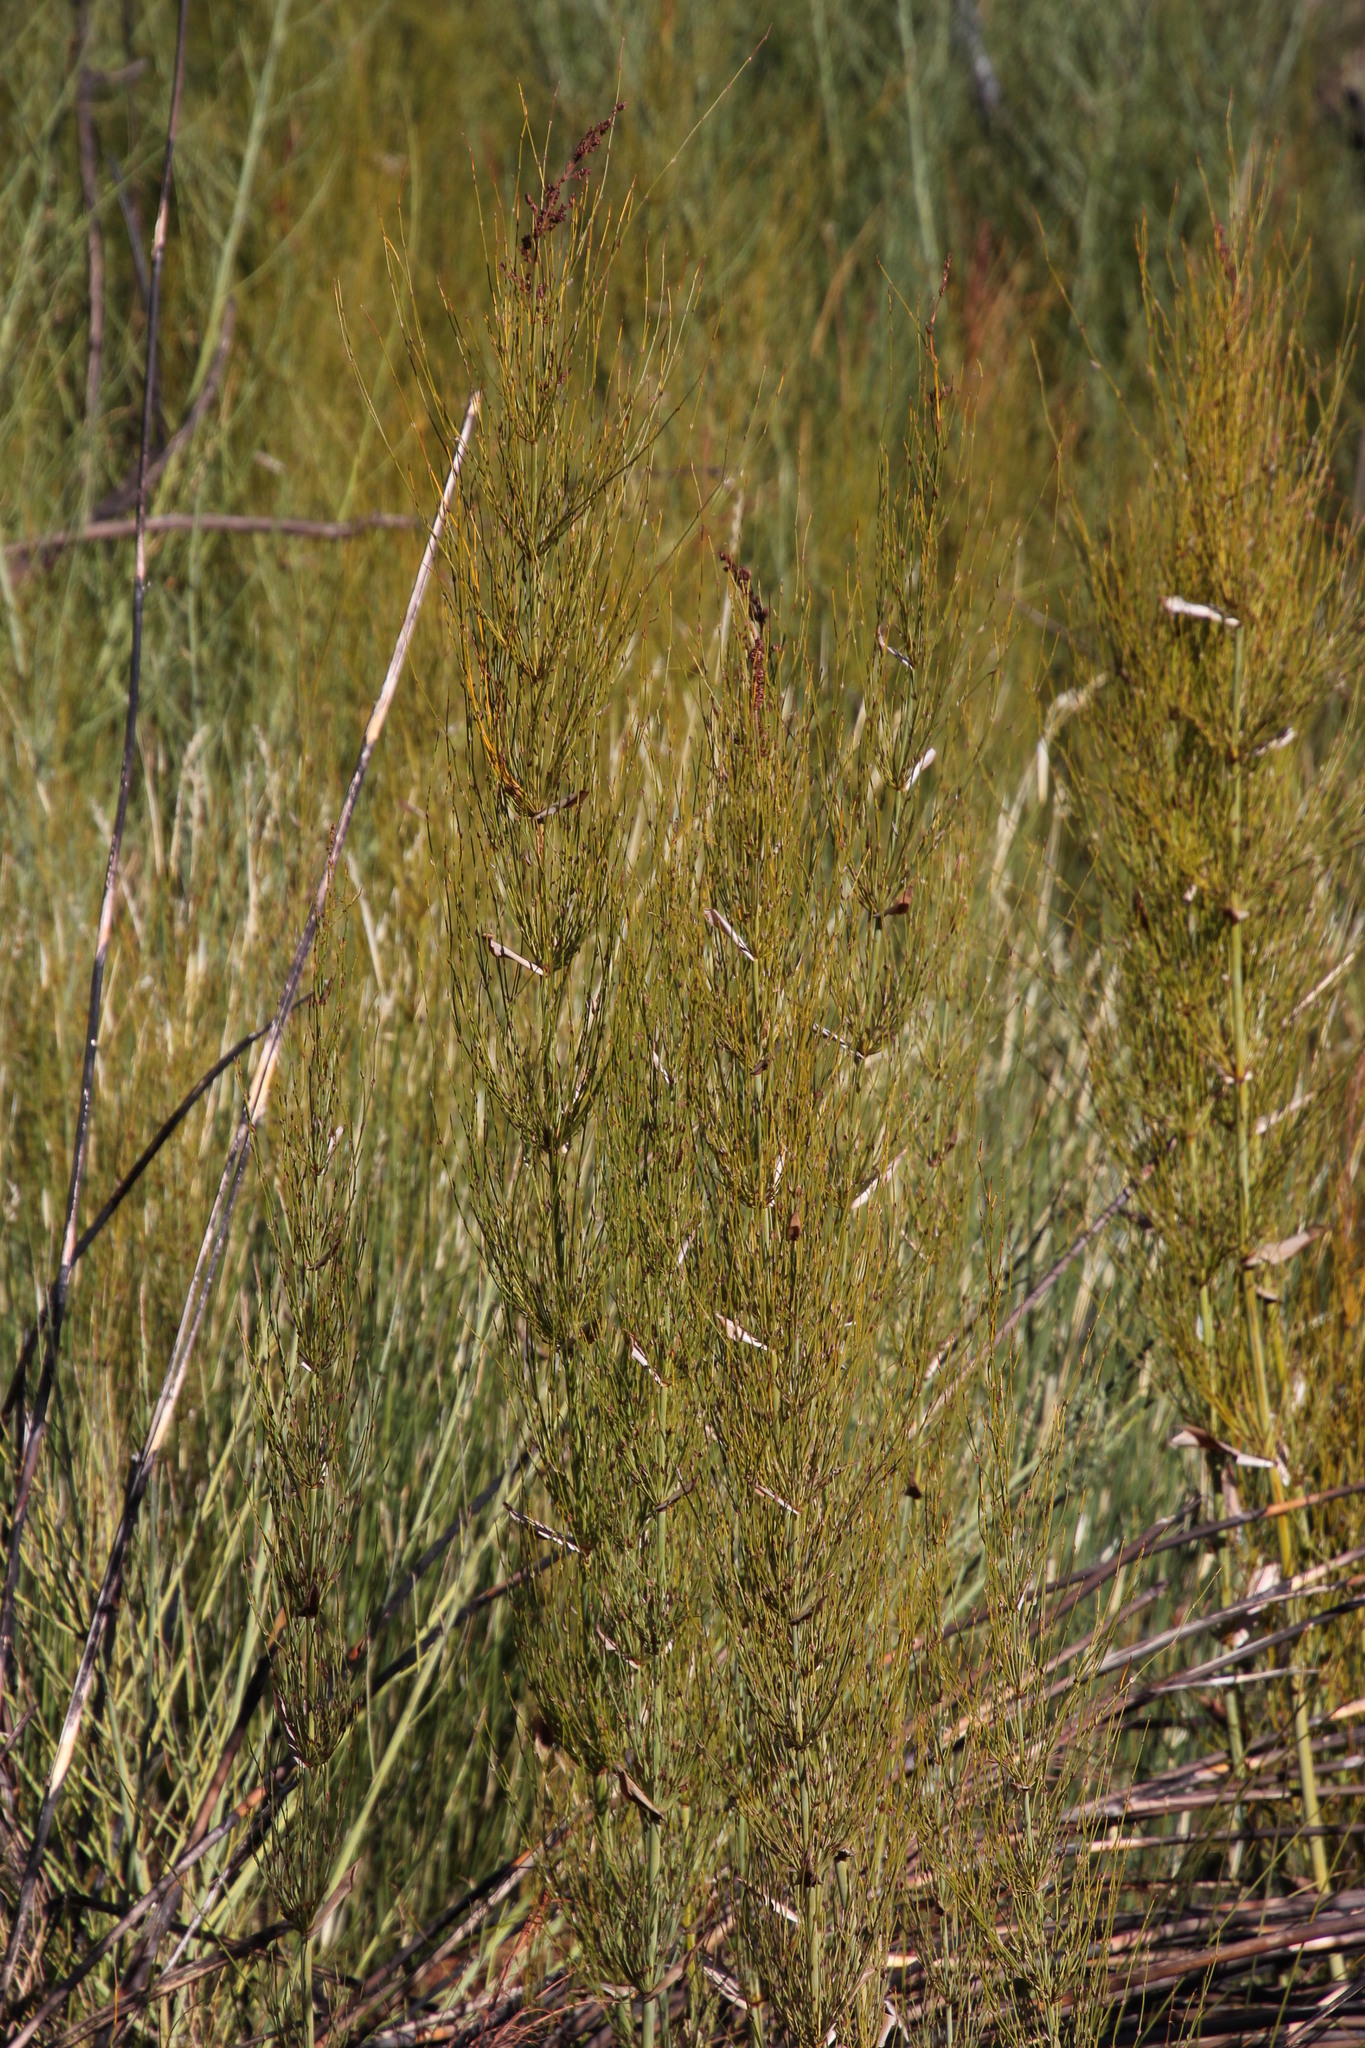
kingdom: Plantae
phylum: Tracheophyta
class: Liliopsida
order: Poales
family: Restionaceae
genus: Elegia
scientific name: Elegia capensis
